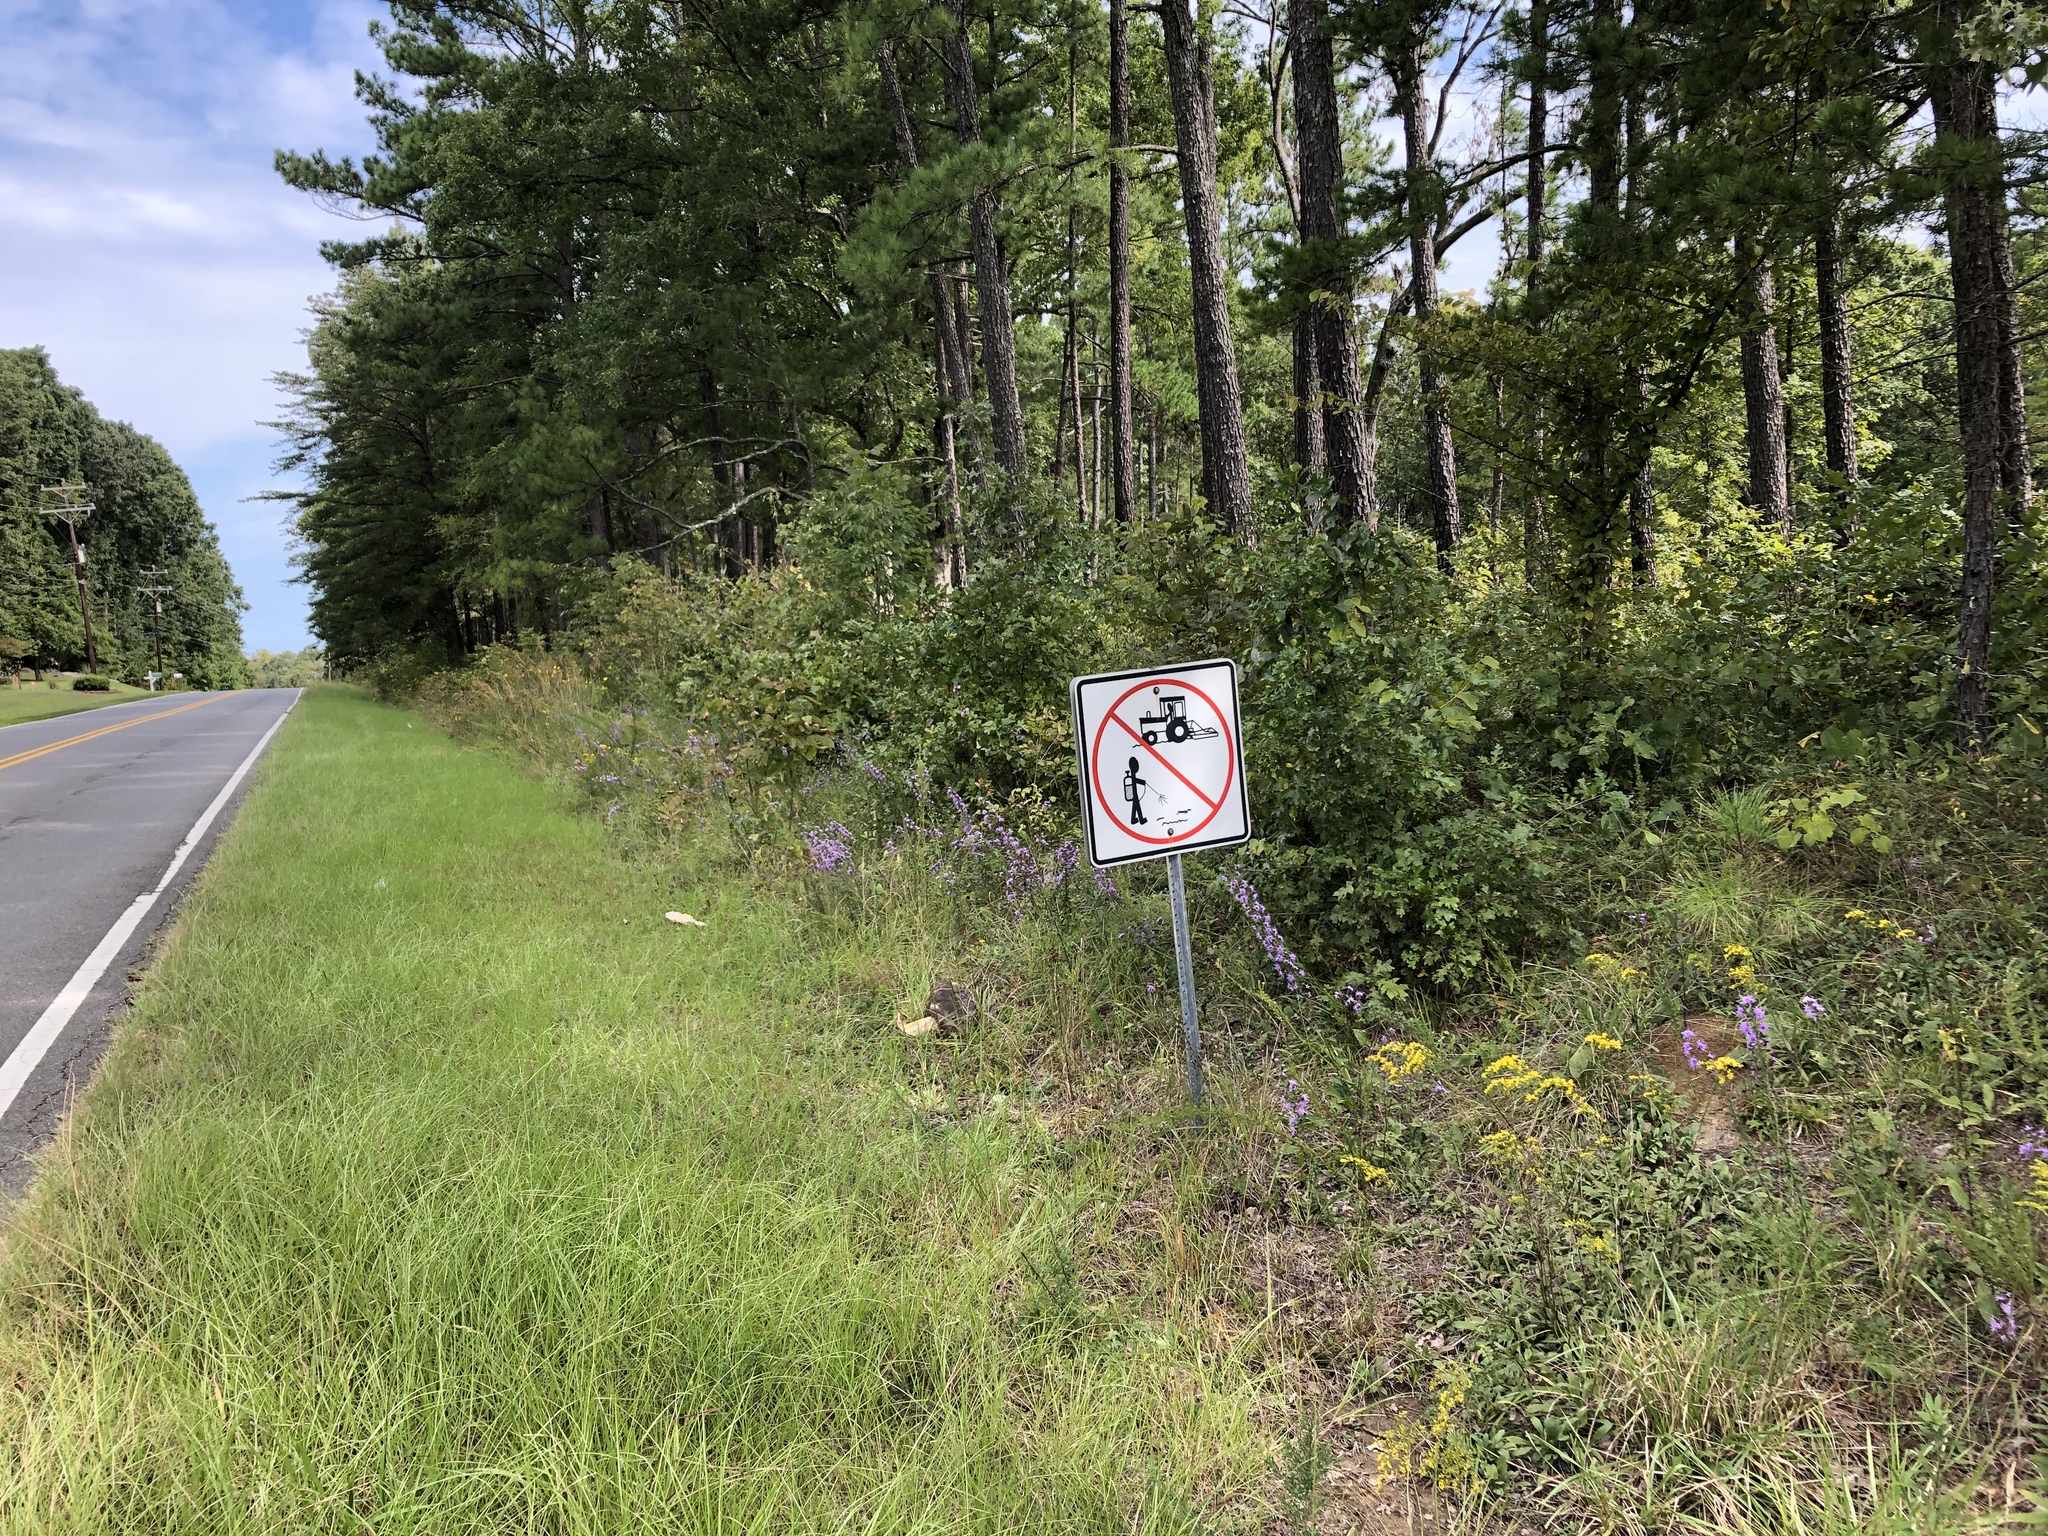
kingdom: Plantae
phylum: Tracheophyta
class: Magnoliopsida
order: Asterales
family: Asteraceae
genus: Liatris
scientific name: Liatris squarrulosa
